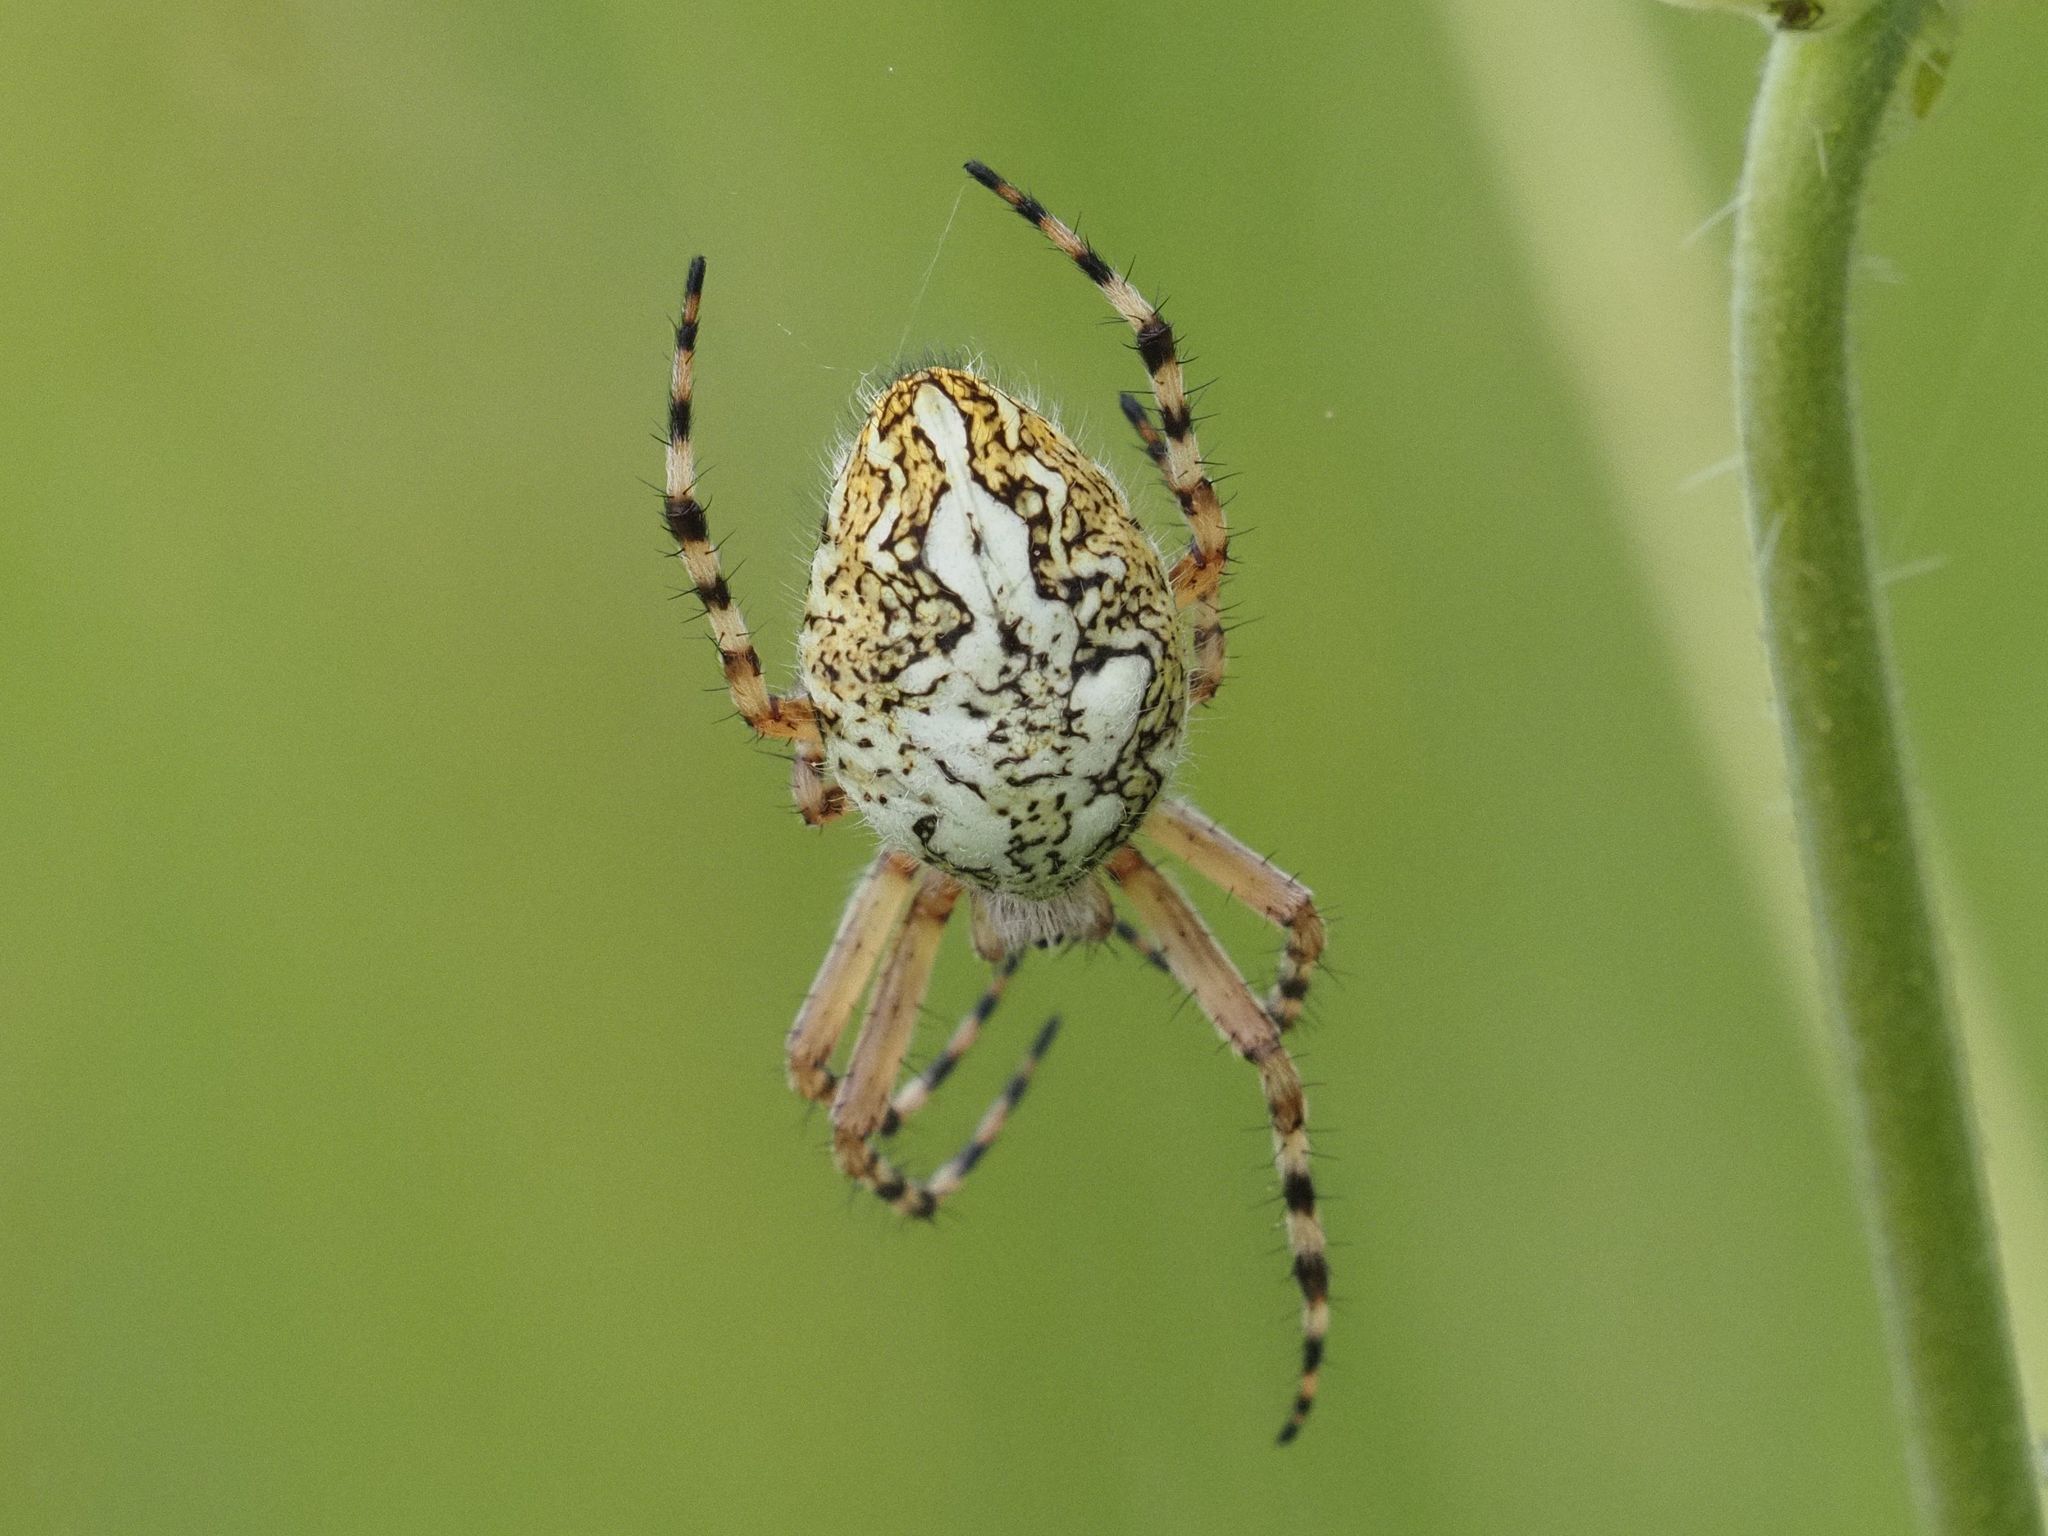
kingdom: Animalia
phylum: Arthropoda
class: Arachnida
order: Araneae
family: Araneidae
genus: Aculepeira
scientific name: Aculepeira ceropegia
